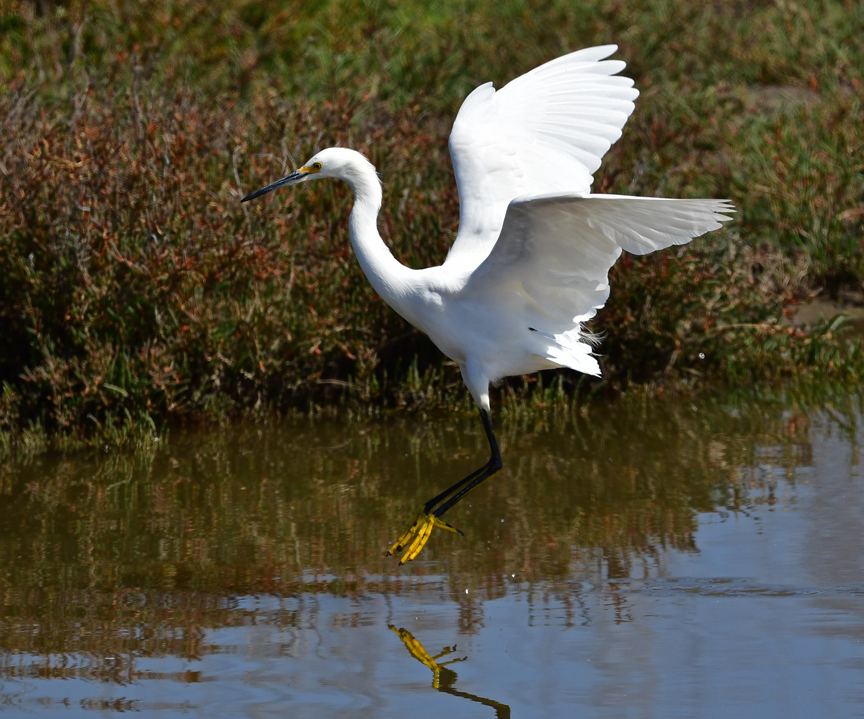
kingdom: Animalia
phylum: Chordata
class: Aves
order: Pelecaniformes
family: Ardeidae
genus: Egretta
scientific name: Egretta thula
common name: Snowy egret
